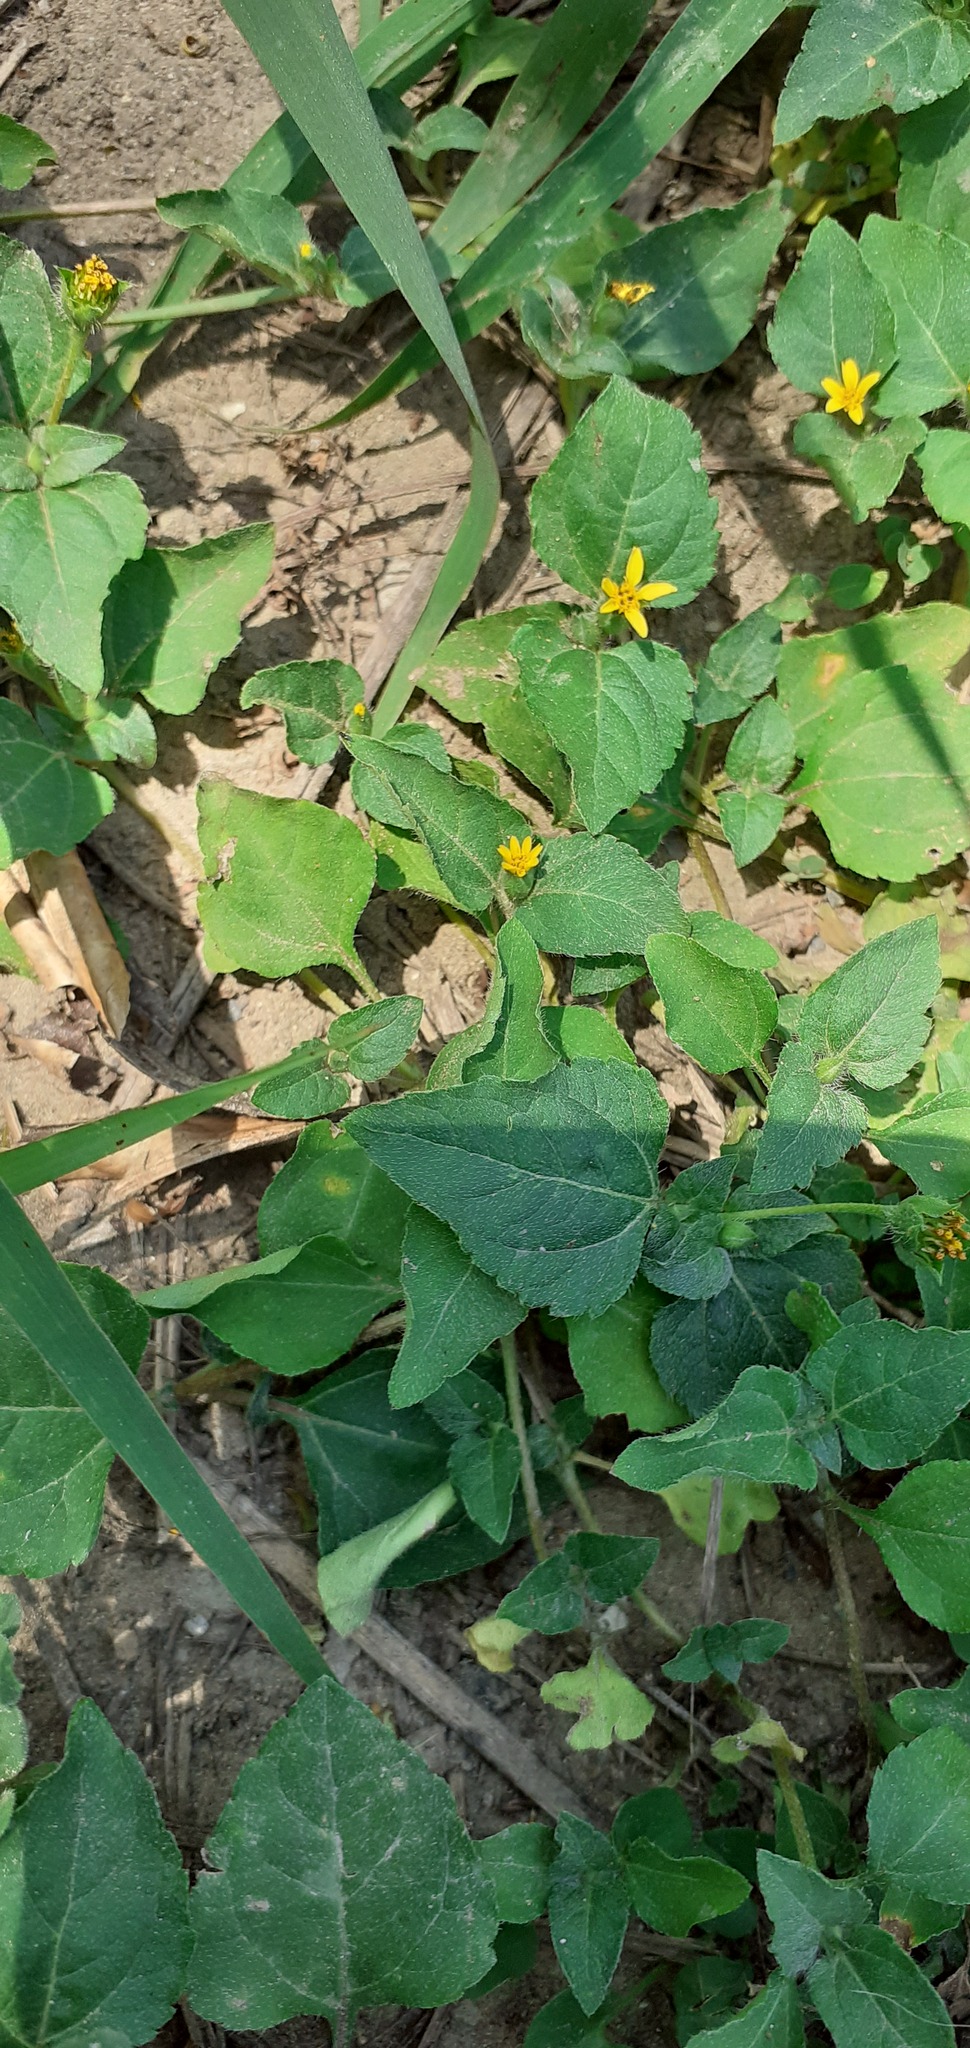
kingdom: Plantae
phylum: Tracheophyta
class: Magnoliopsida
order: Asterales
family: Asteraceae
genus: Calyptocarpus
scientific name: Calyptocarpus vialis
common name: Straggler daisy
